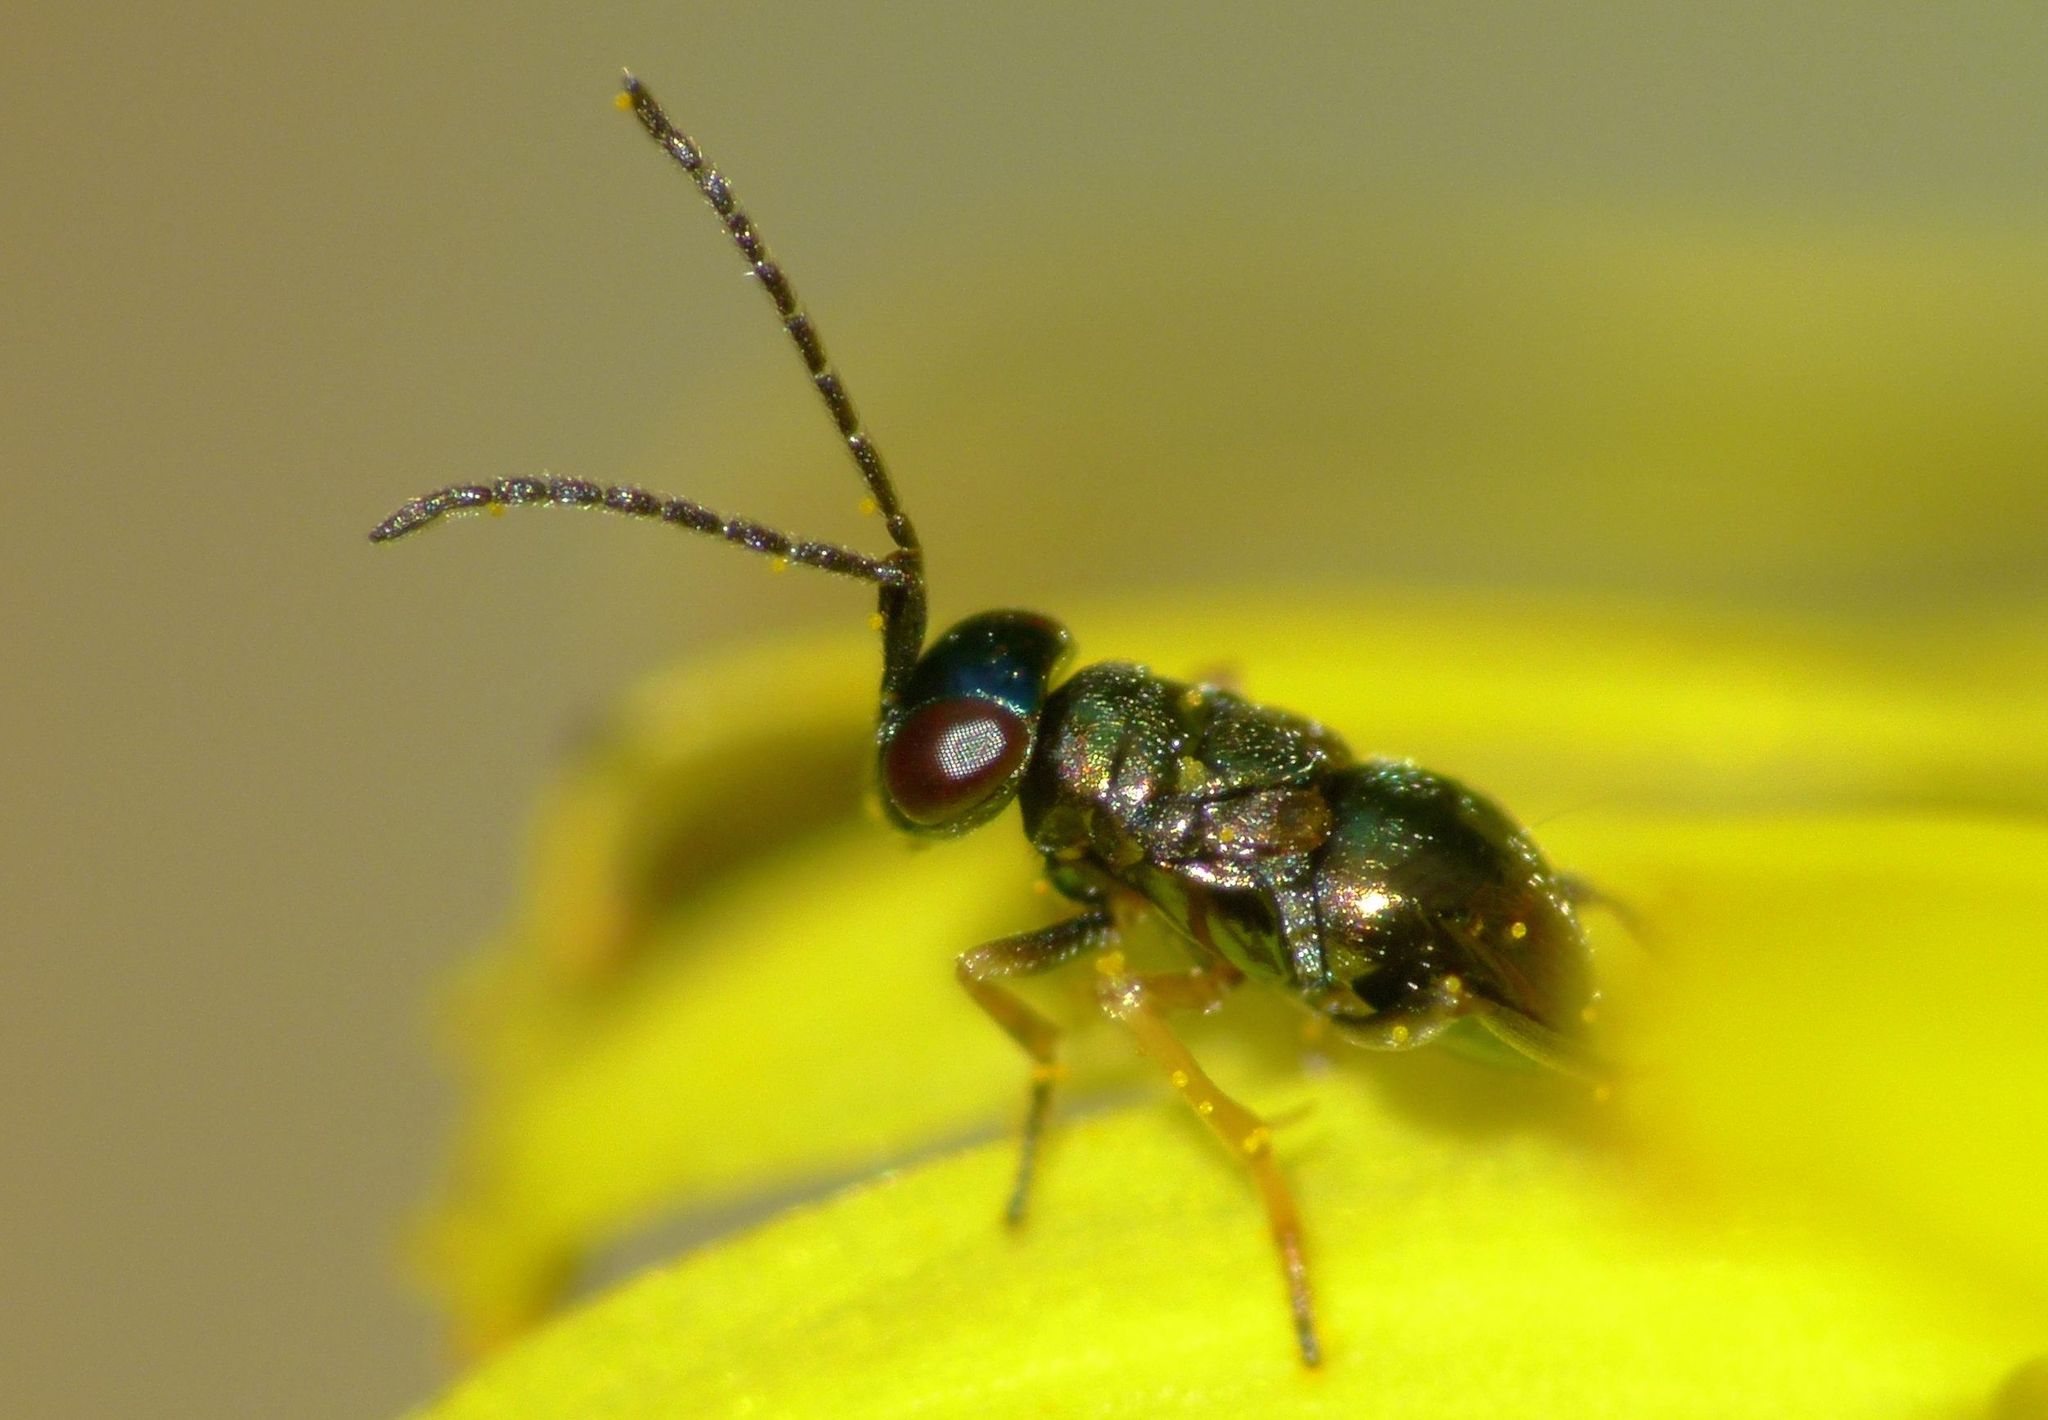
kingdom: Animalia
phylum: Arthropoda
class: Insecta
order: Hymenoptera
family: Encyrtidae
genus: Odiaglyptus
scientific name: Odiaglyptus biformis
